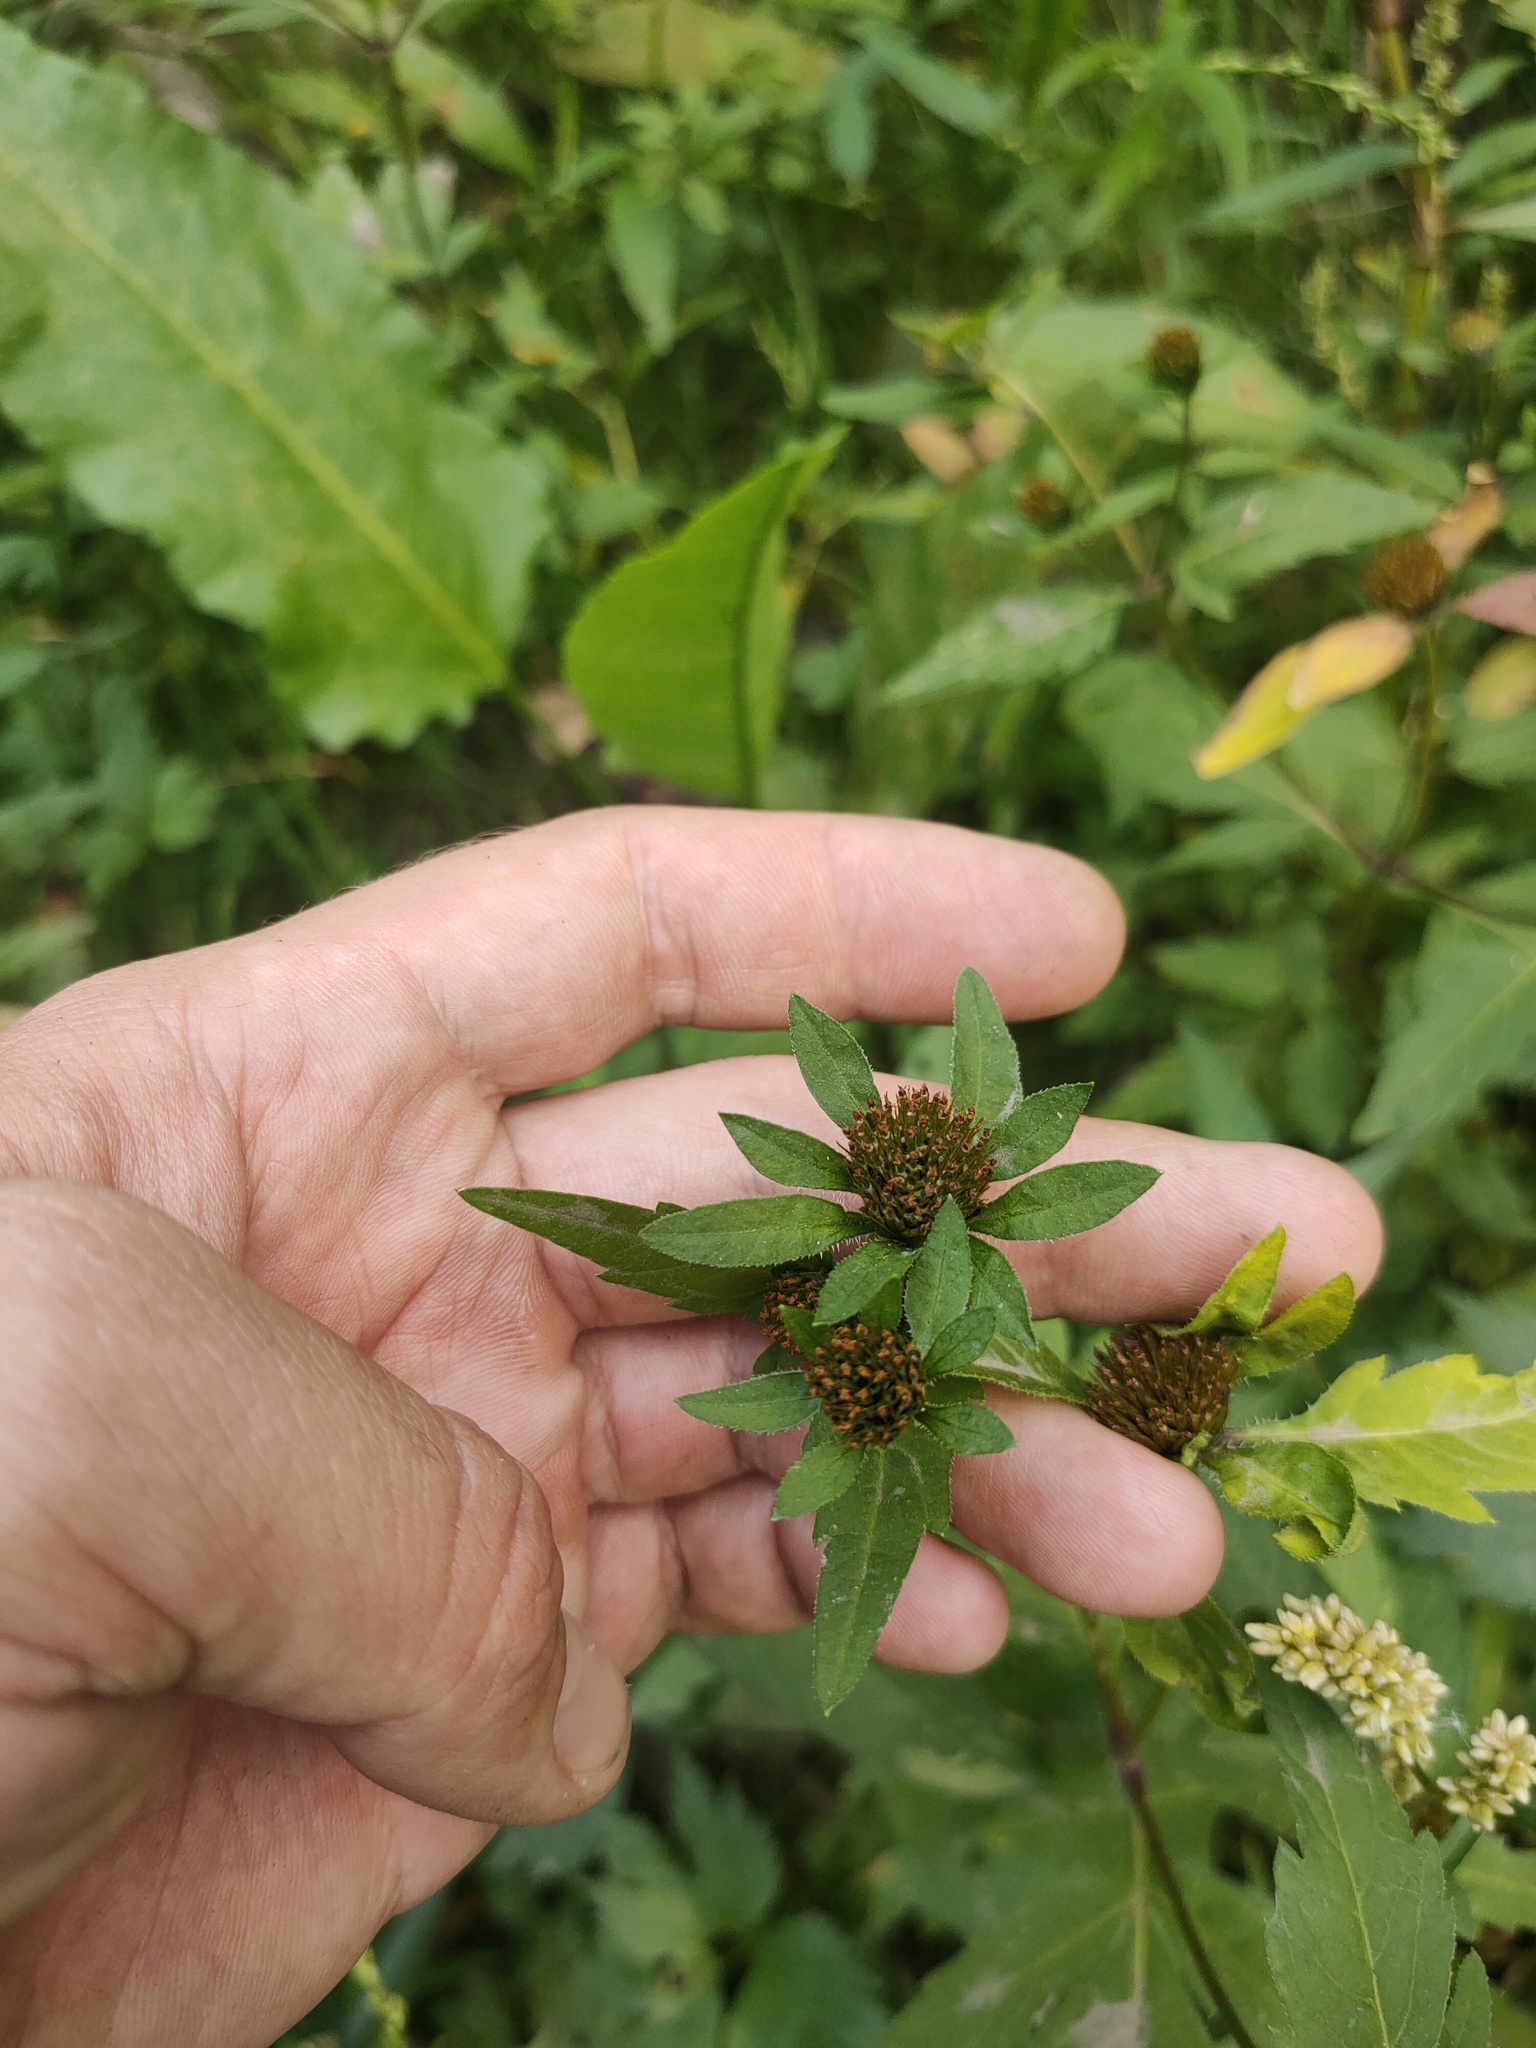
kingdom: Plantae
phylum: Tracheophyta
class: Magnoliopsida
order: Asterales
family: Asteraceae
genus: Bidens
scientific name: Bidens tripartita
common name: Trifid bur-marigold
